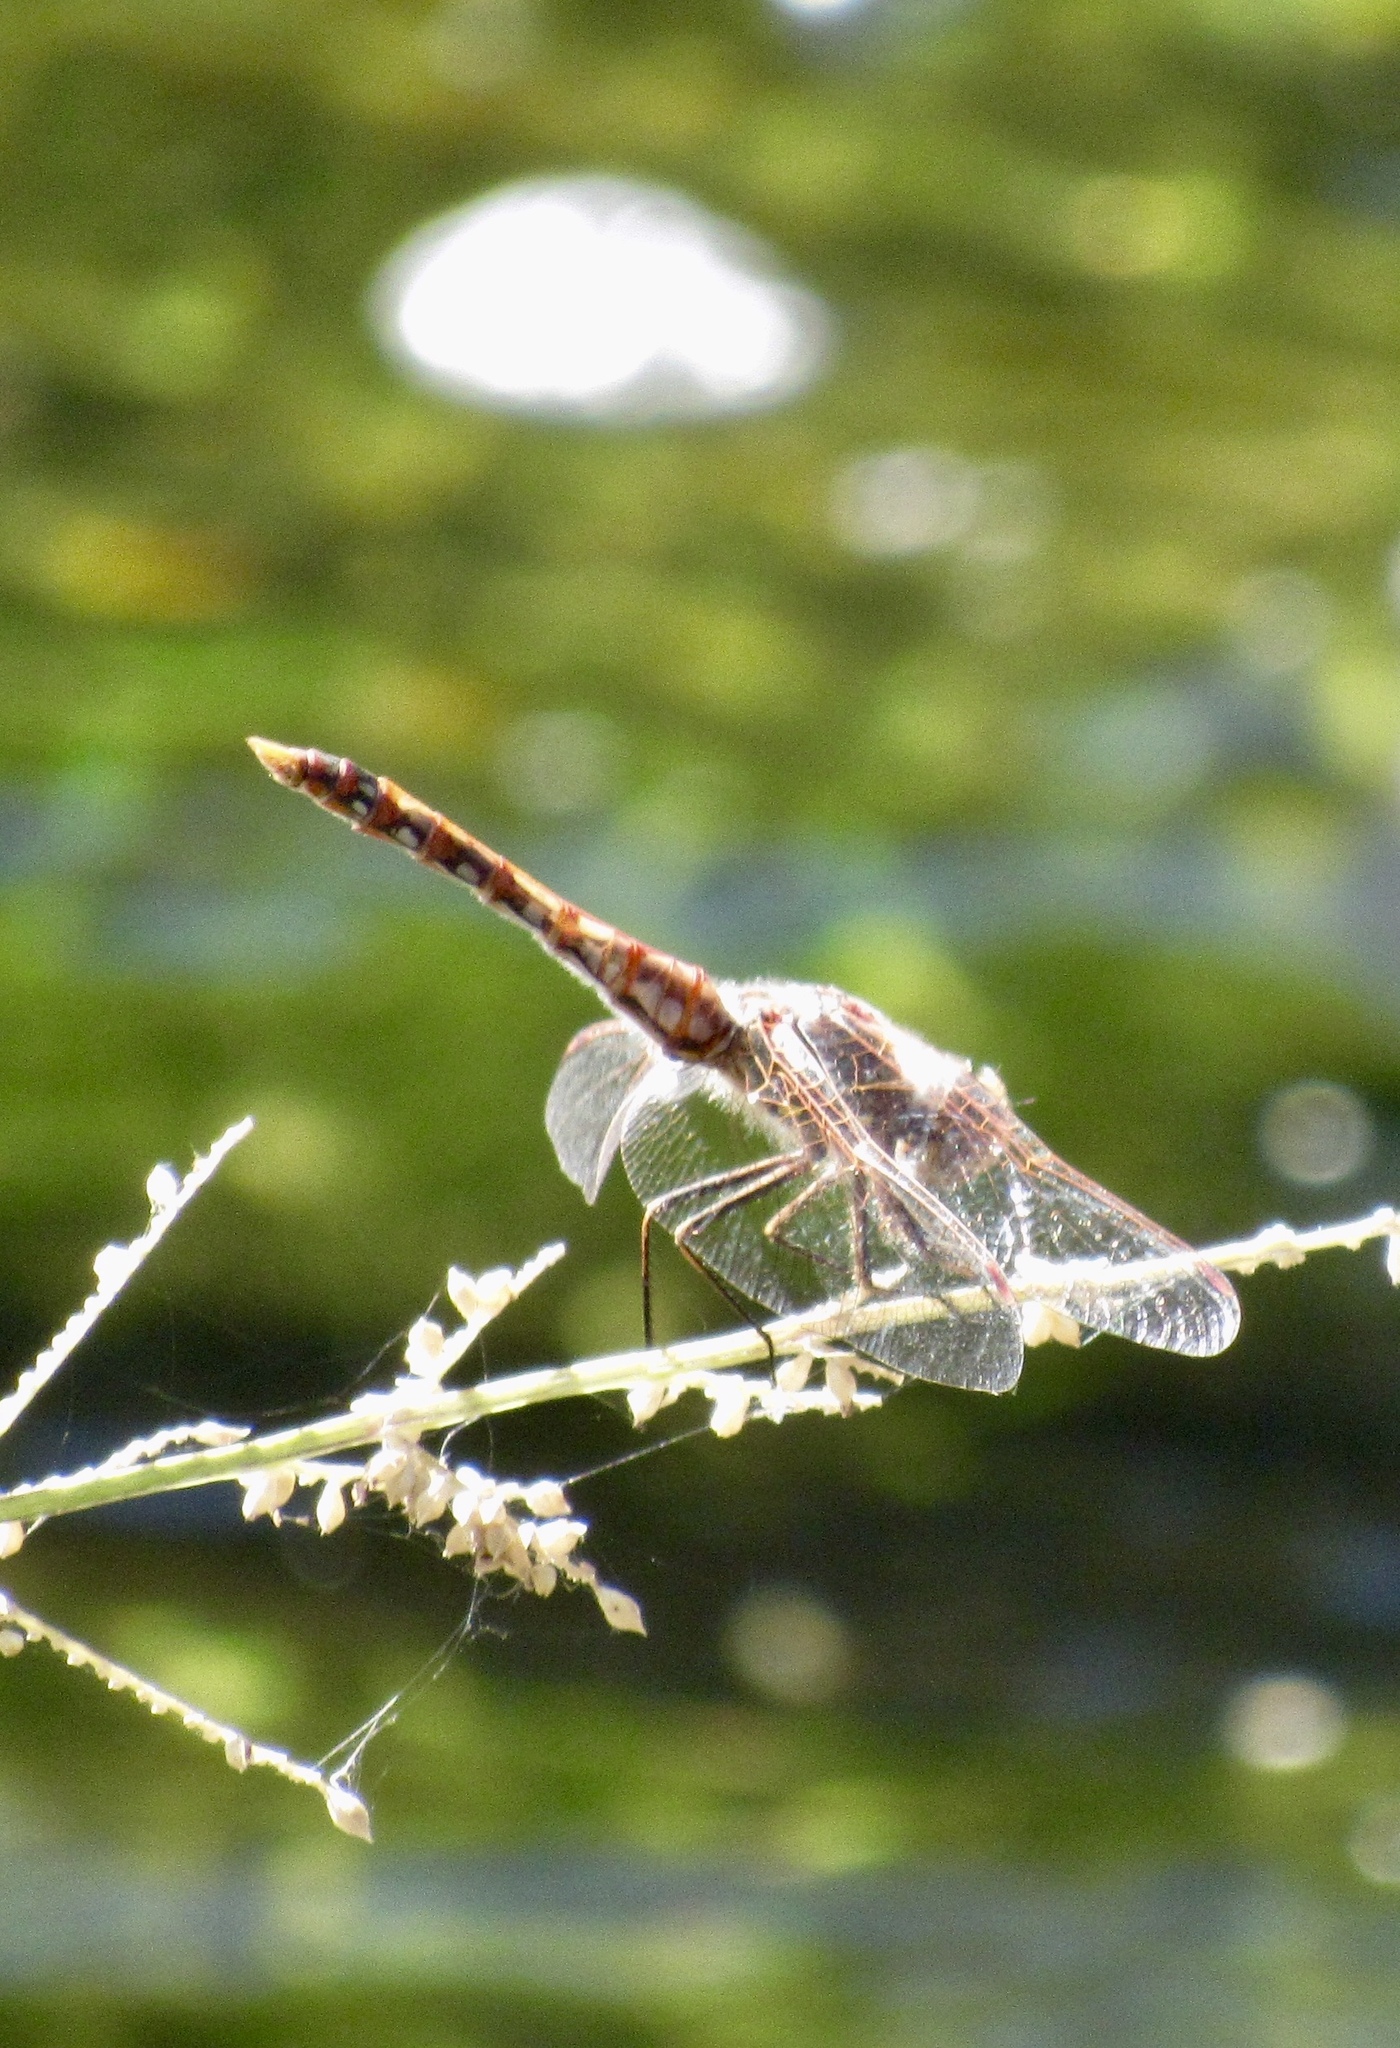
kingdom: Animalia
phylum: Arthropoda
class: Insecta
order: Odonata
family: Libellulidae
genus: Sympetrum
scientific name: Sympetrum corruptum
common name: Variegated meadowhawk
